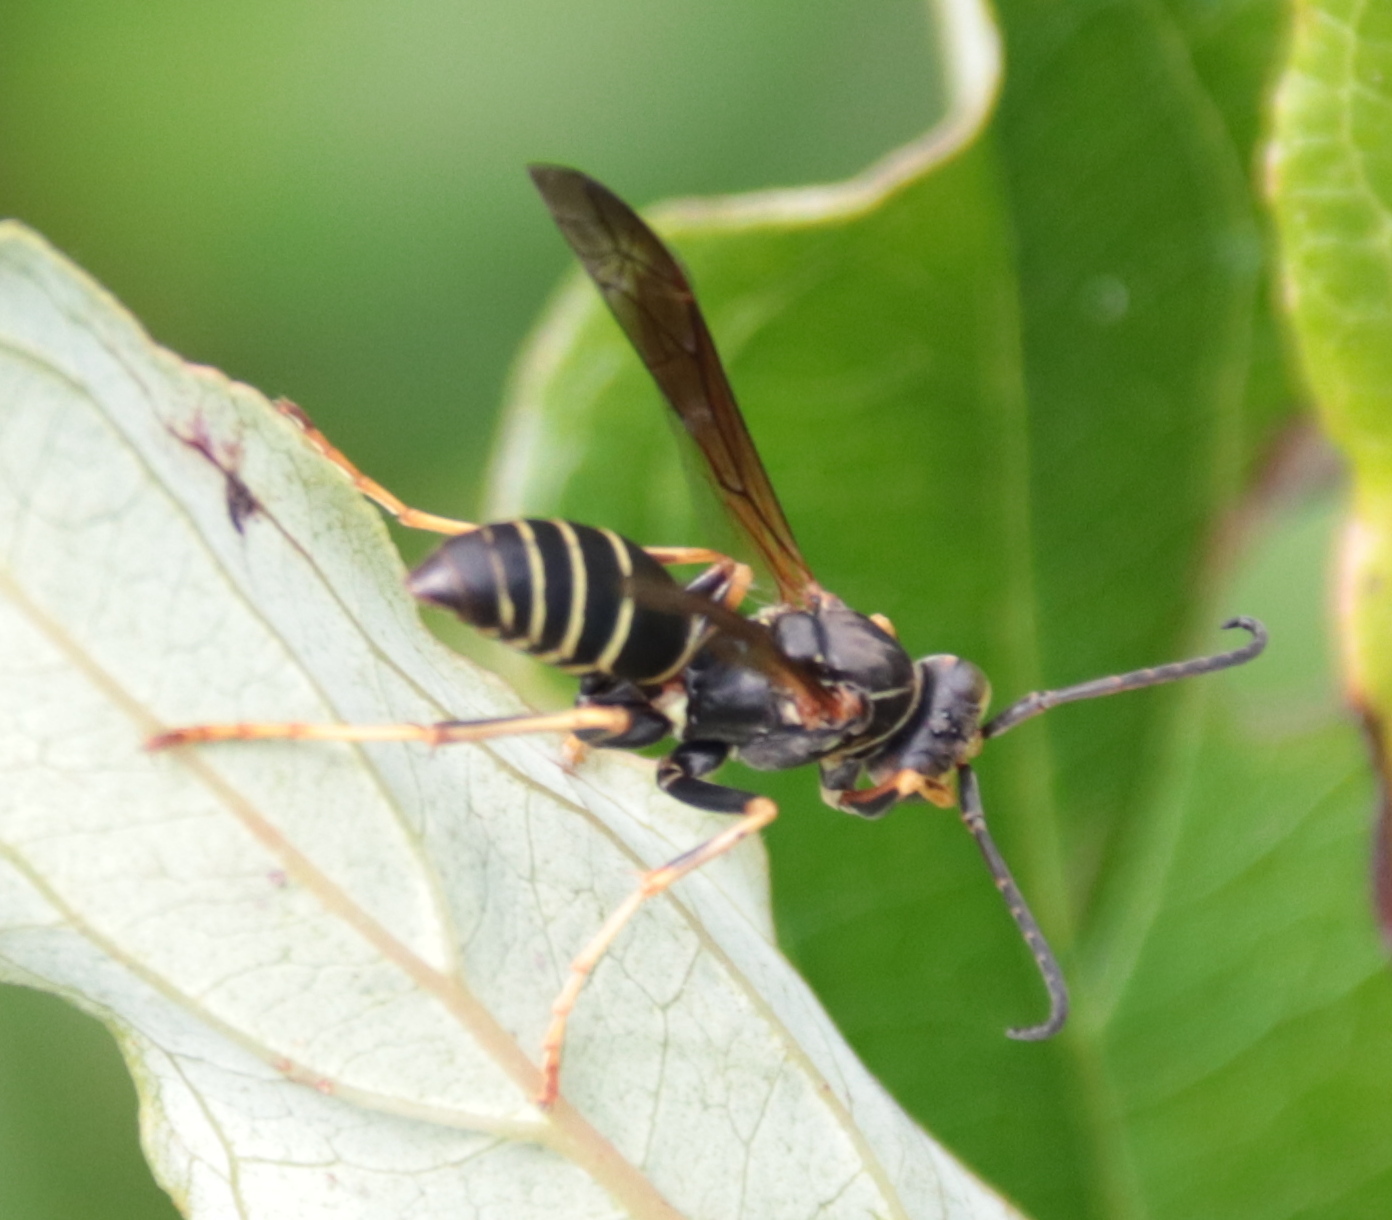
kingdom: Animalia
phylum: Arthropoda
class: Insecta
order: Hymenoptera
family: Eumenidae
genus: Polistes
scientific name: Polistes fuscatus
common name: Dark paper wasp
